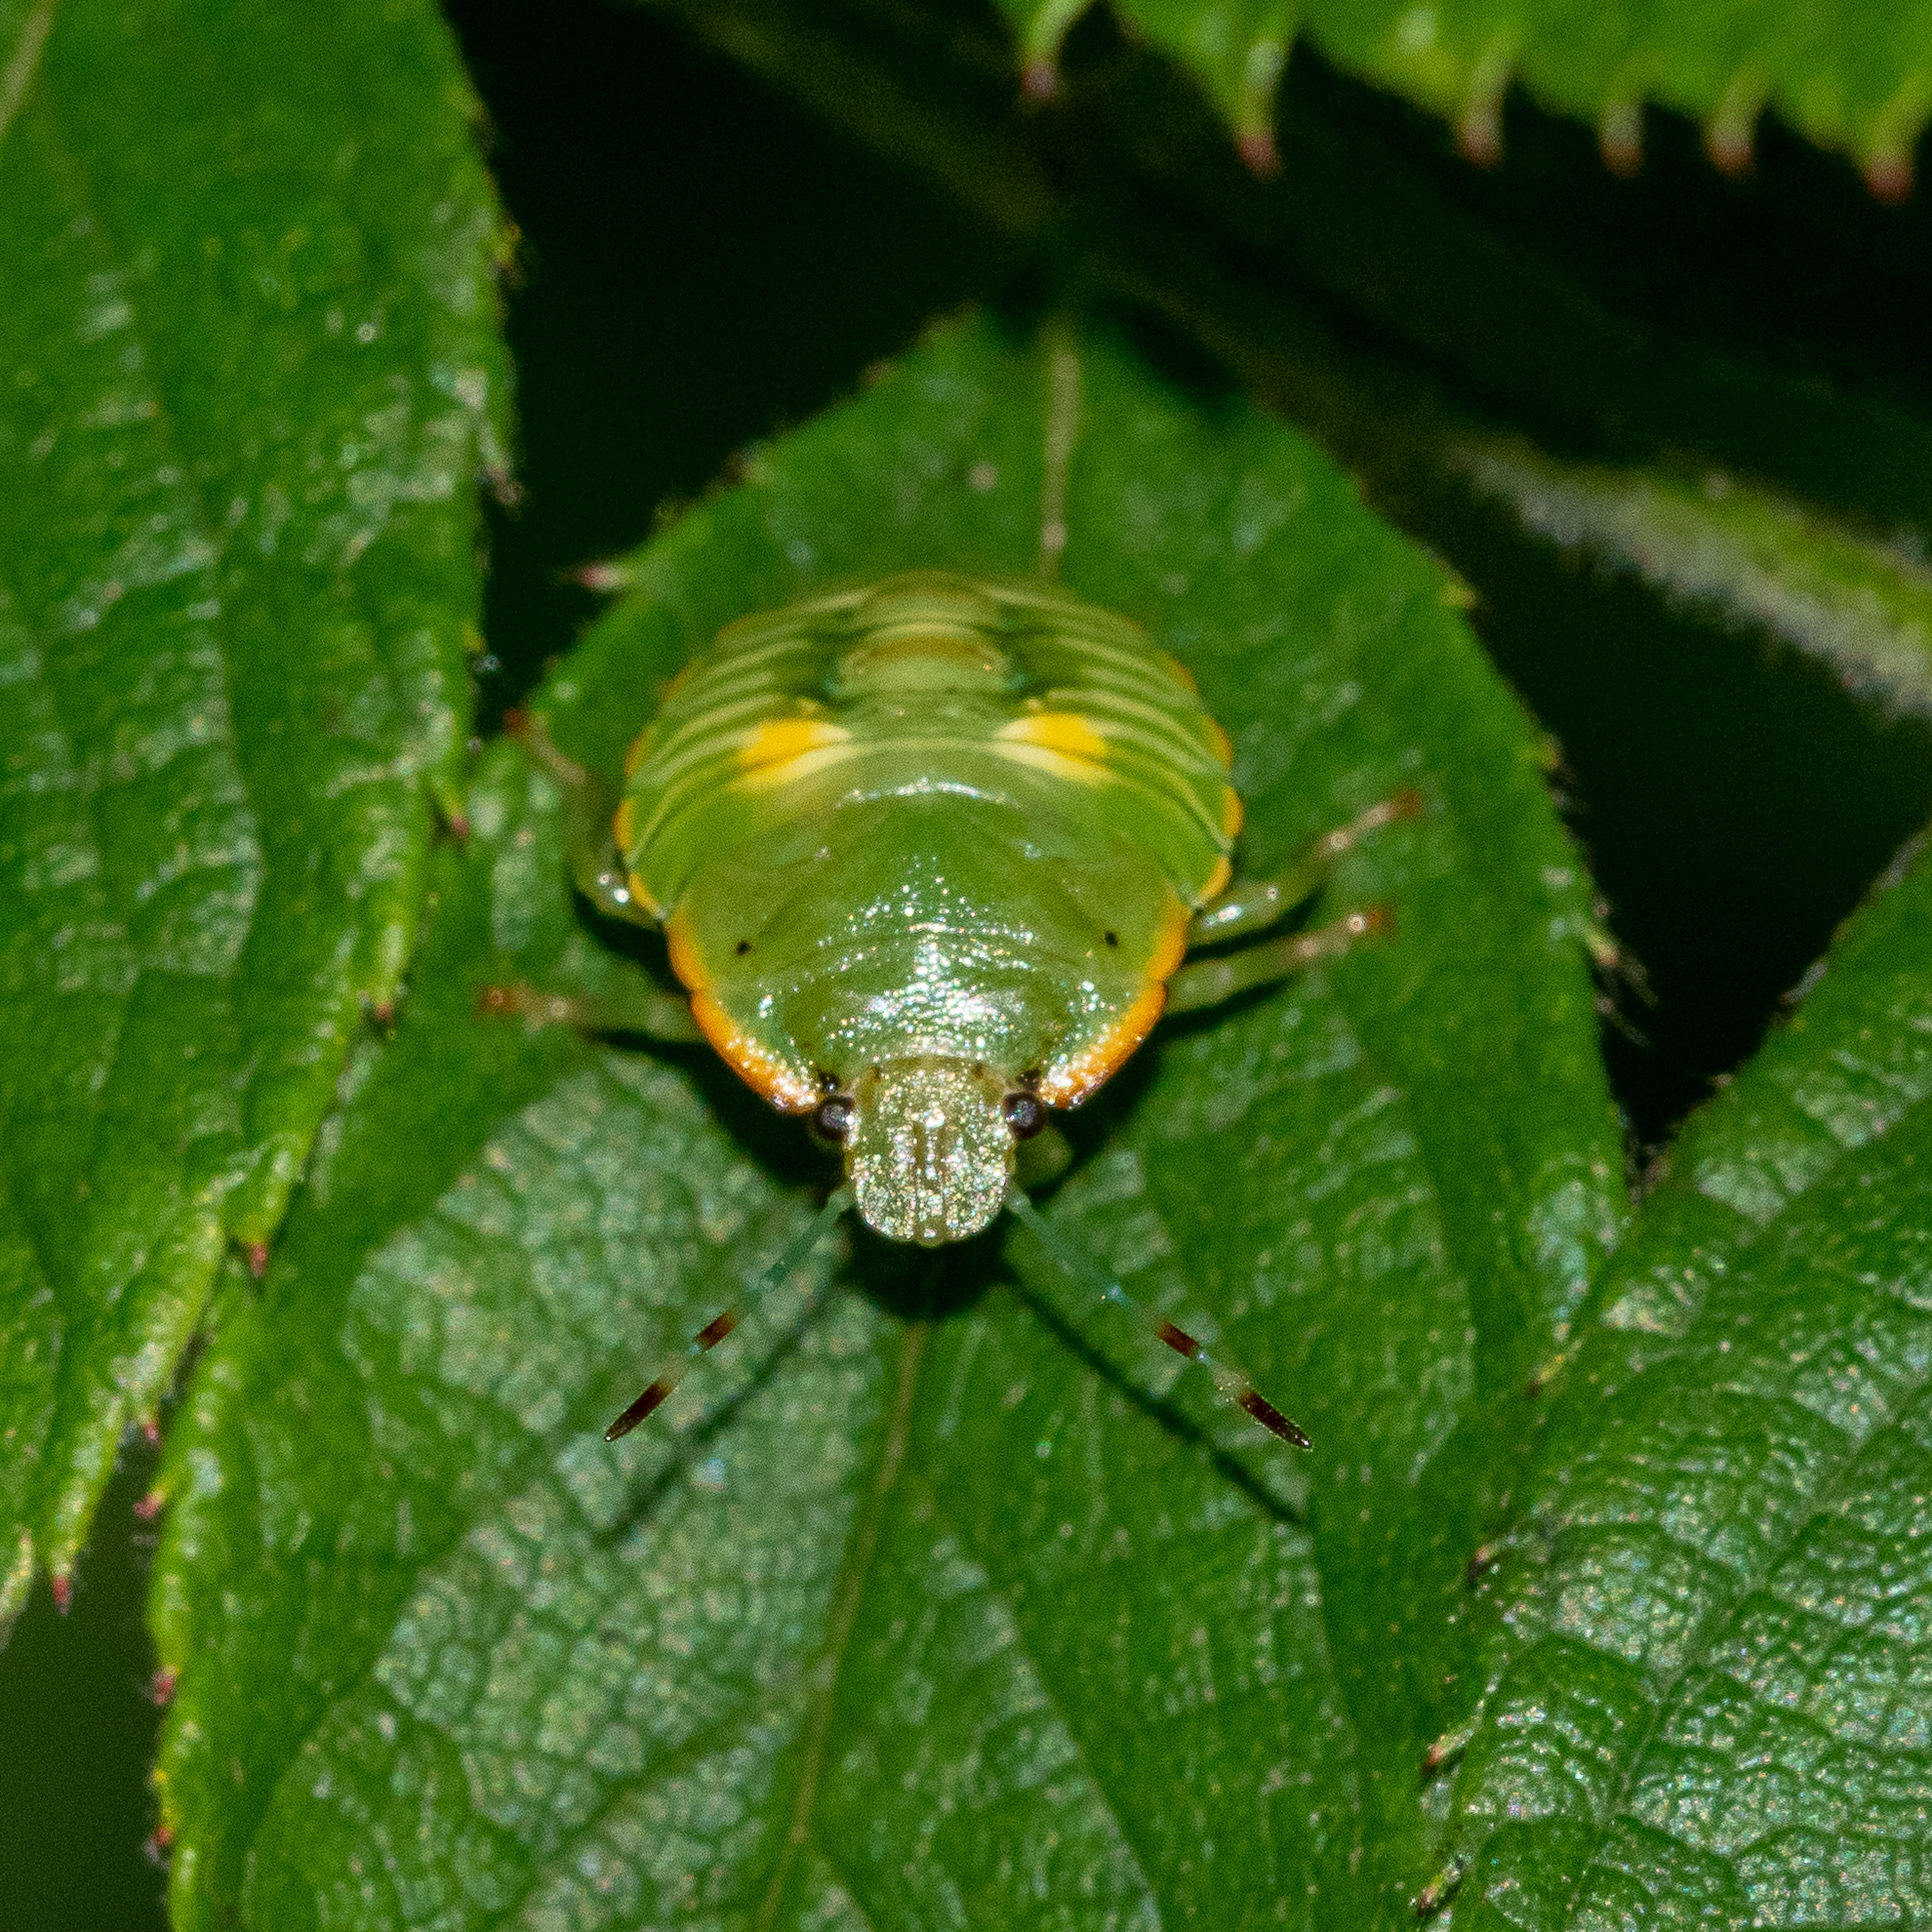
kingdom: Animalia
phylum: Arthropoda
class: Insecta
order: Hemiptera
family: Pentatomidae
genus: Chinavia
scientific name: Chinavia hilaris
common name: Green stink bug
